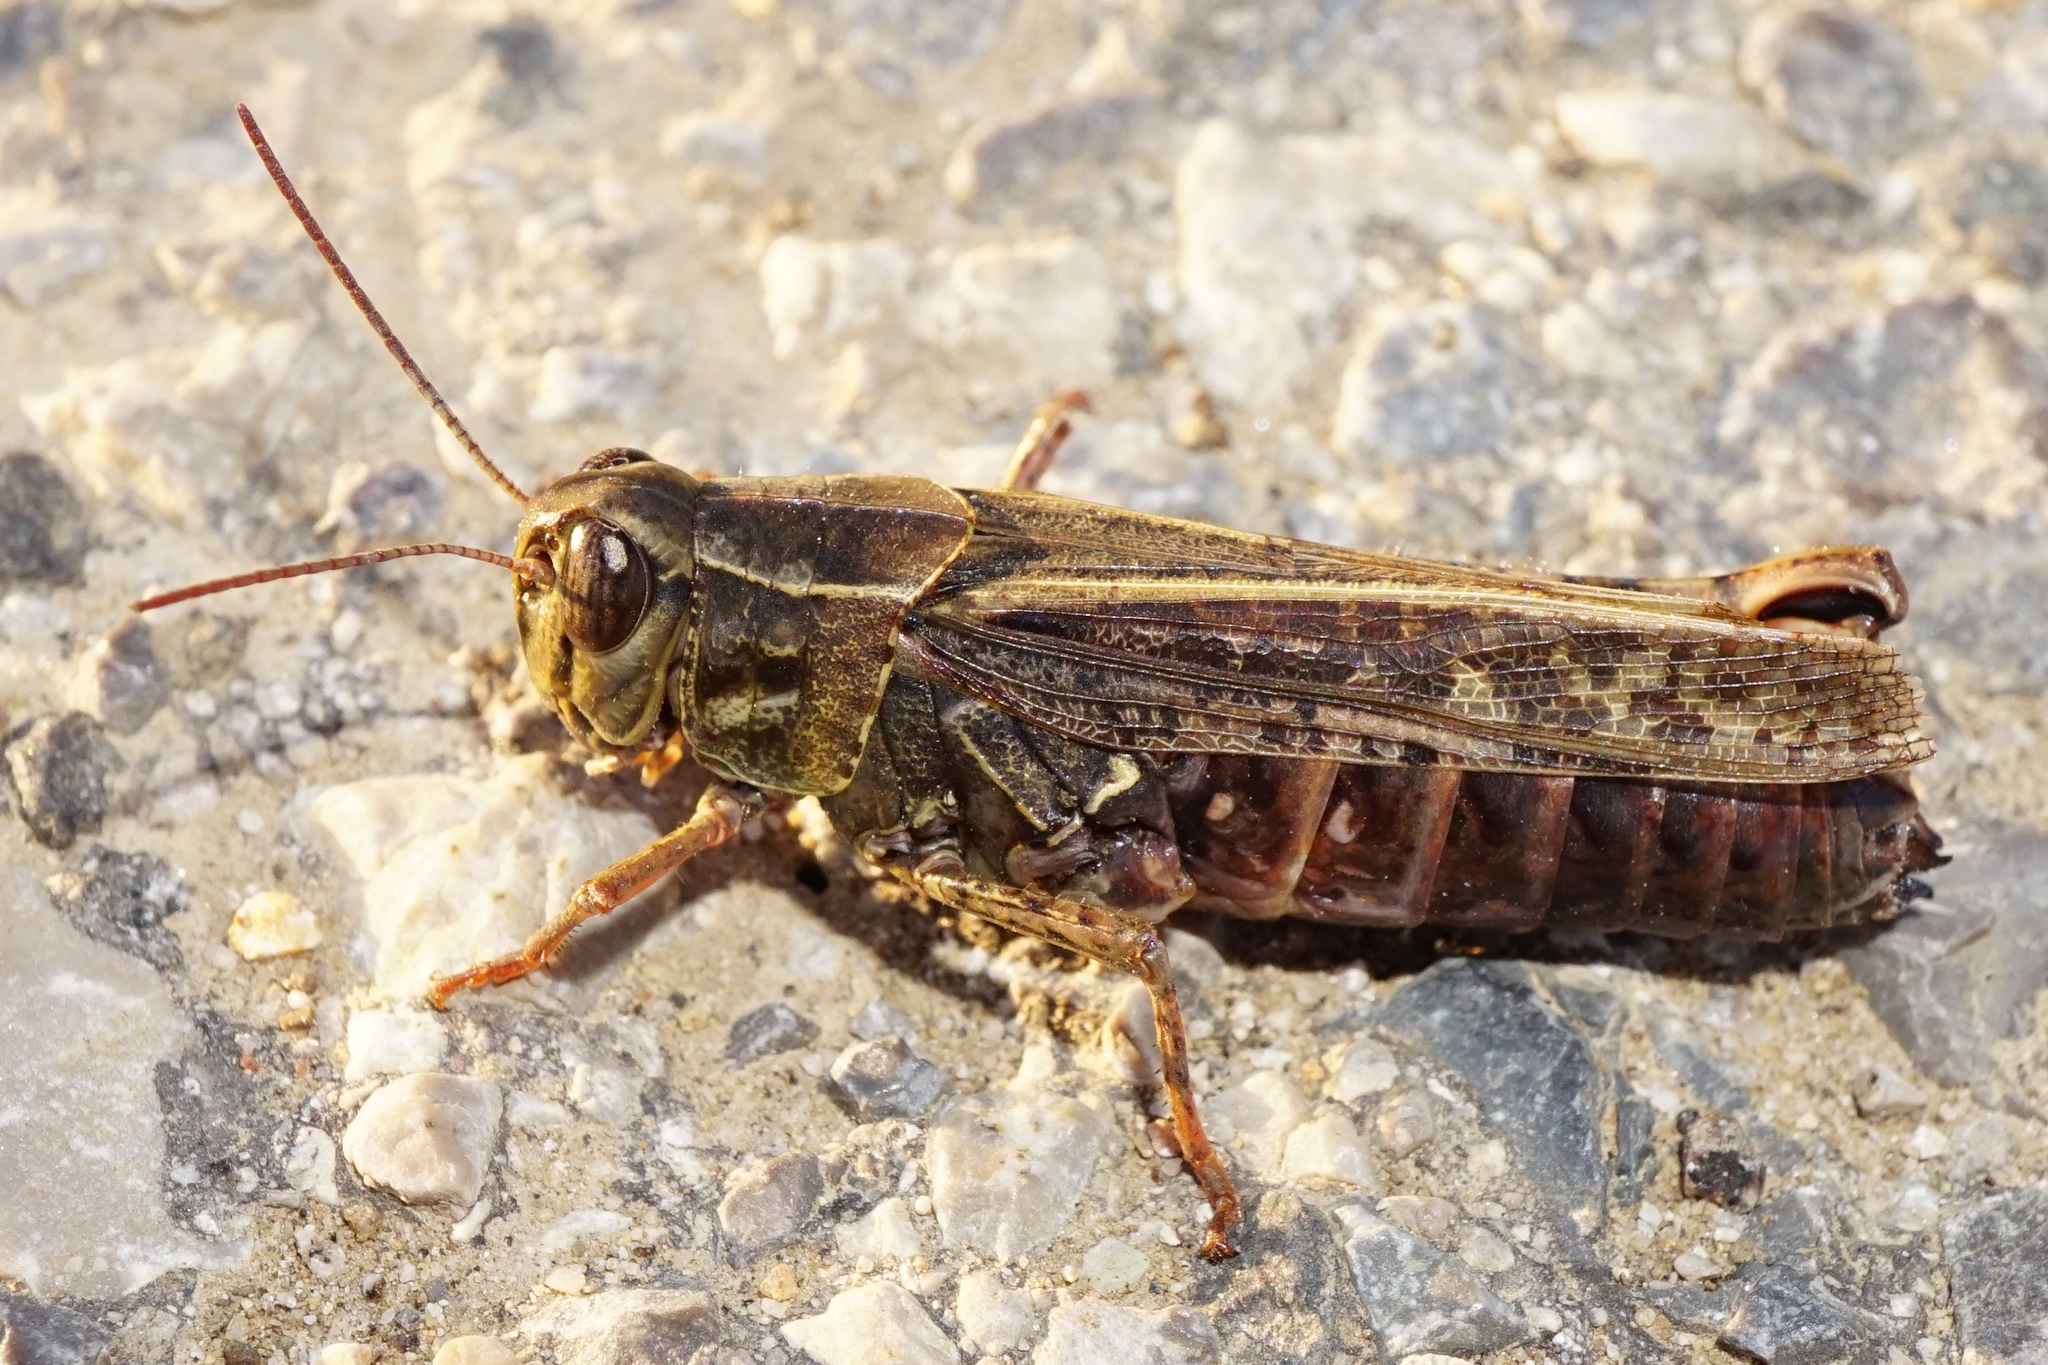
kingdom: Animalia
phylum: Arthropoda
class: Insecta
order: Orthoptera
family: Acrididae
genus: Calliptamus
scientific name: Calliptamus italicus
